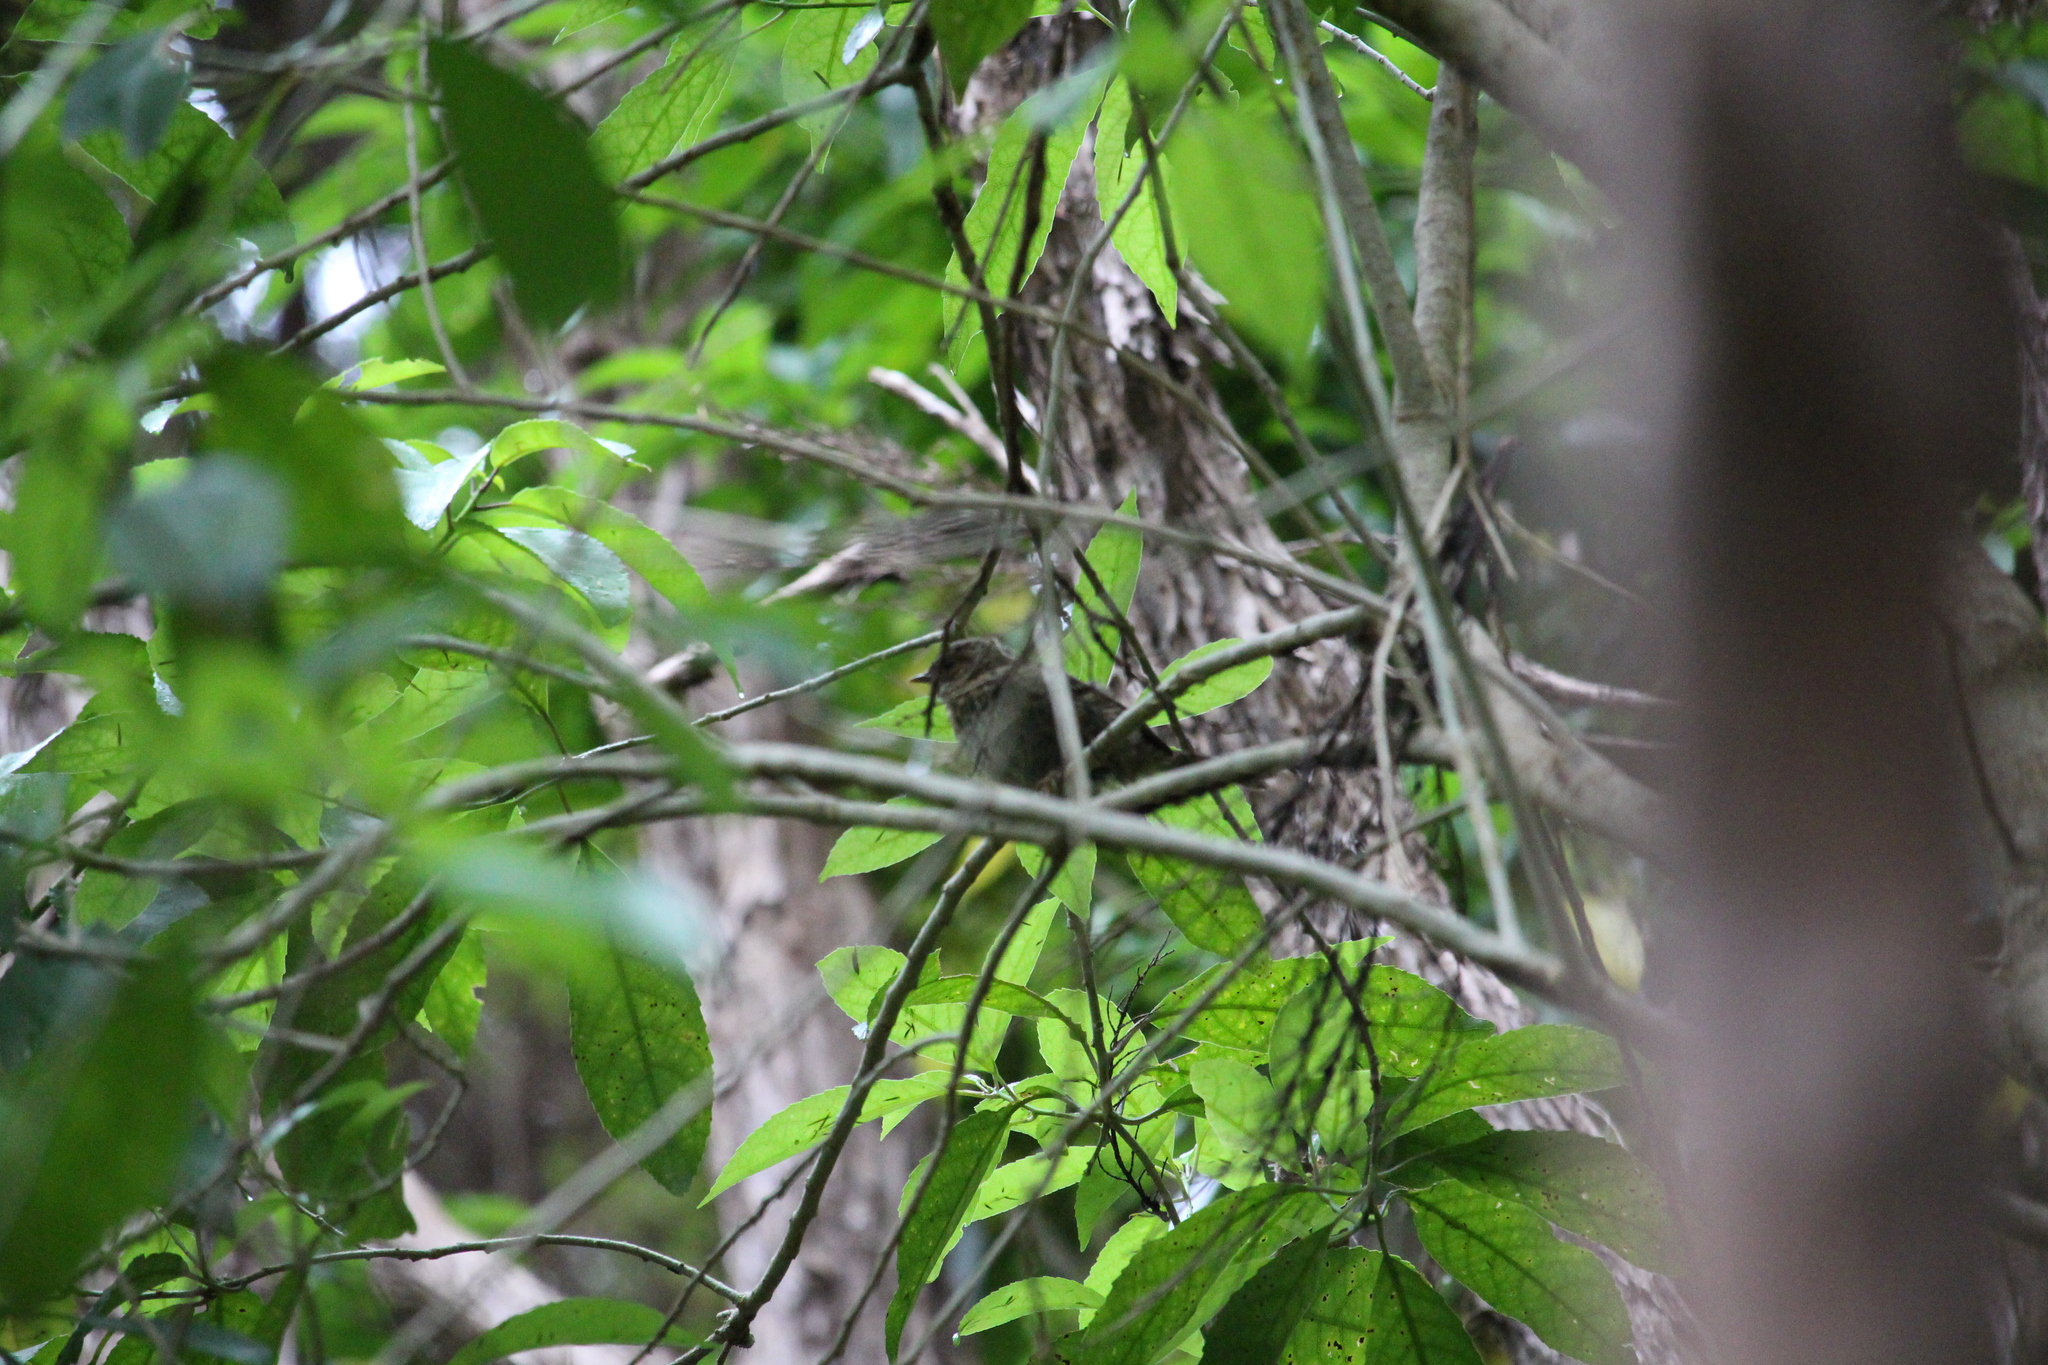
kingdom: Animalia
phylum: Chordata
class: Aves
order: Passeriformes
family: Acanthizidae
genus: Finschia
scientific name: Finschia novaeseelandiae
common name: Pipipi
